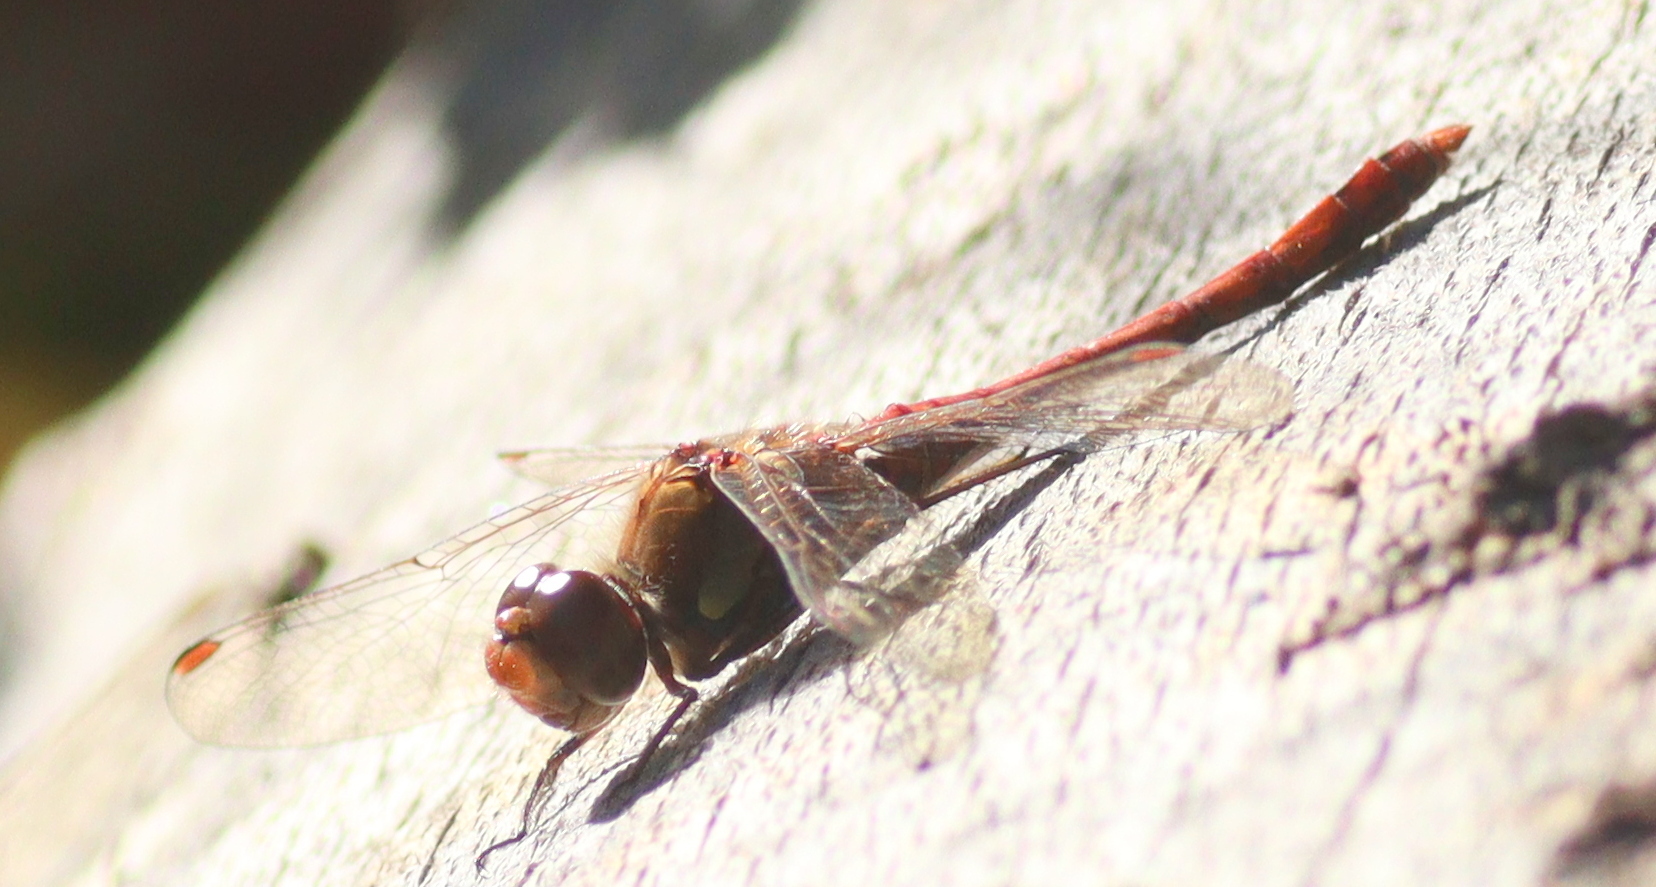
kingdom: Animalia
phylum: Arthropoda
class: Insecta
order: Odonata
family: Libellulidae
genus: Sympetrum
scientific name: Sympetrum striolatum
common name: Common darter
